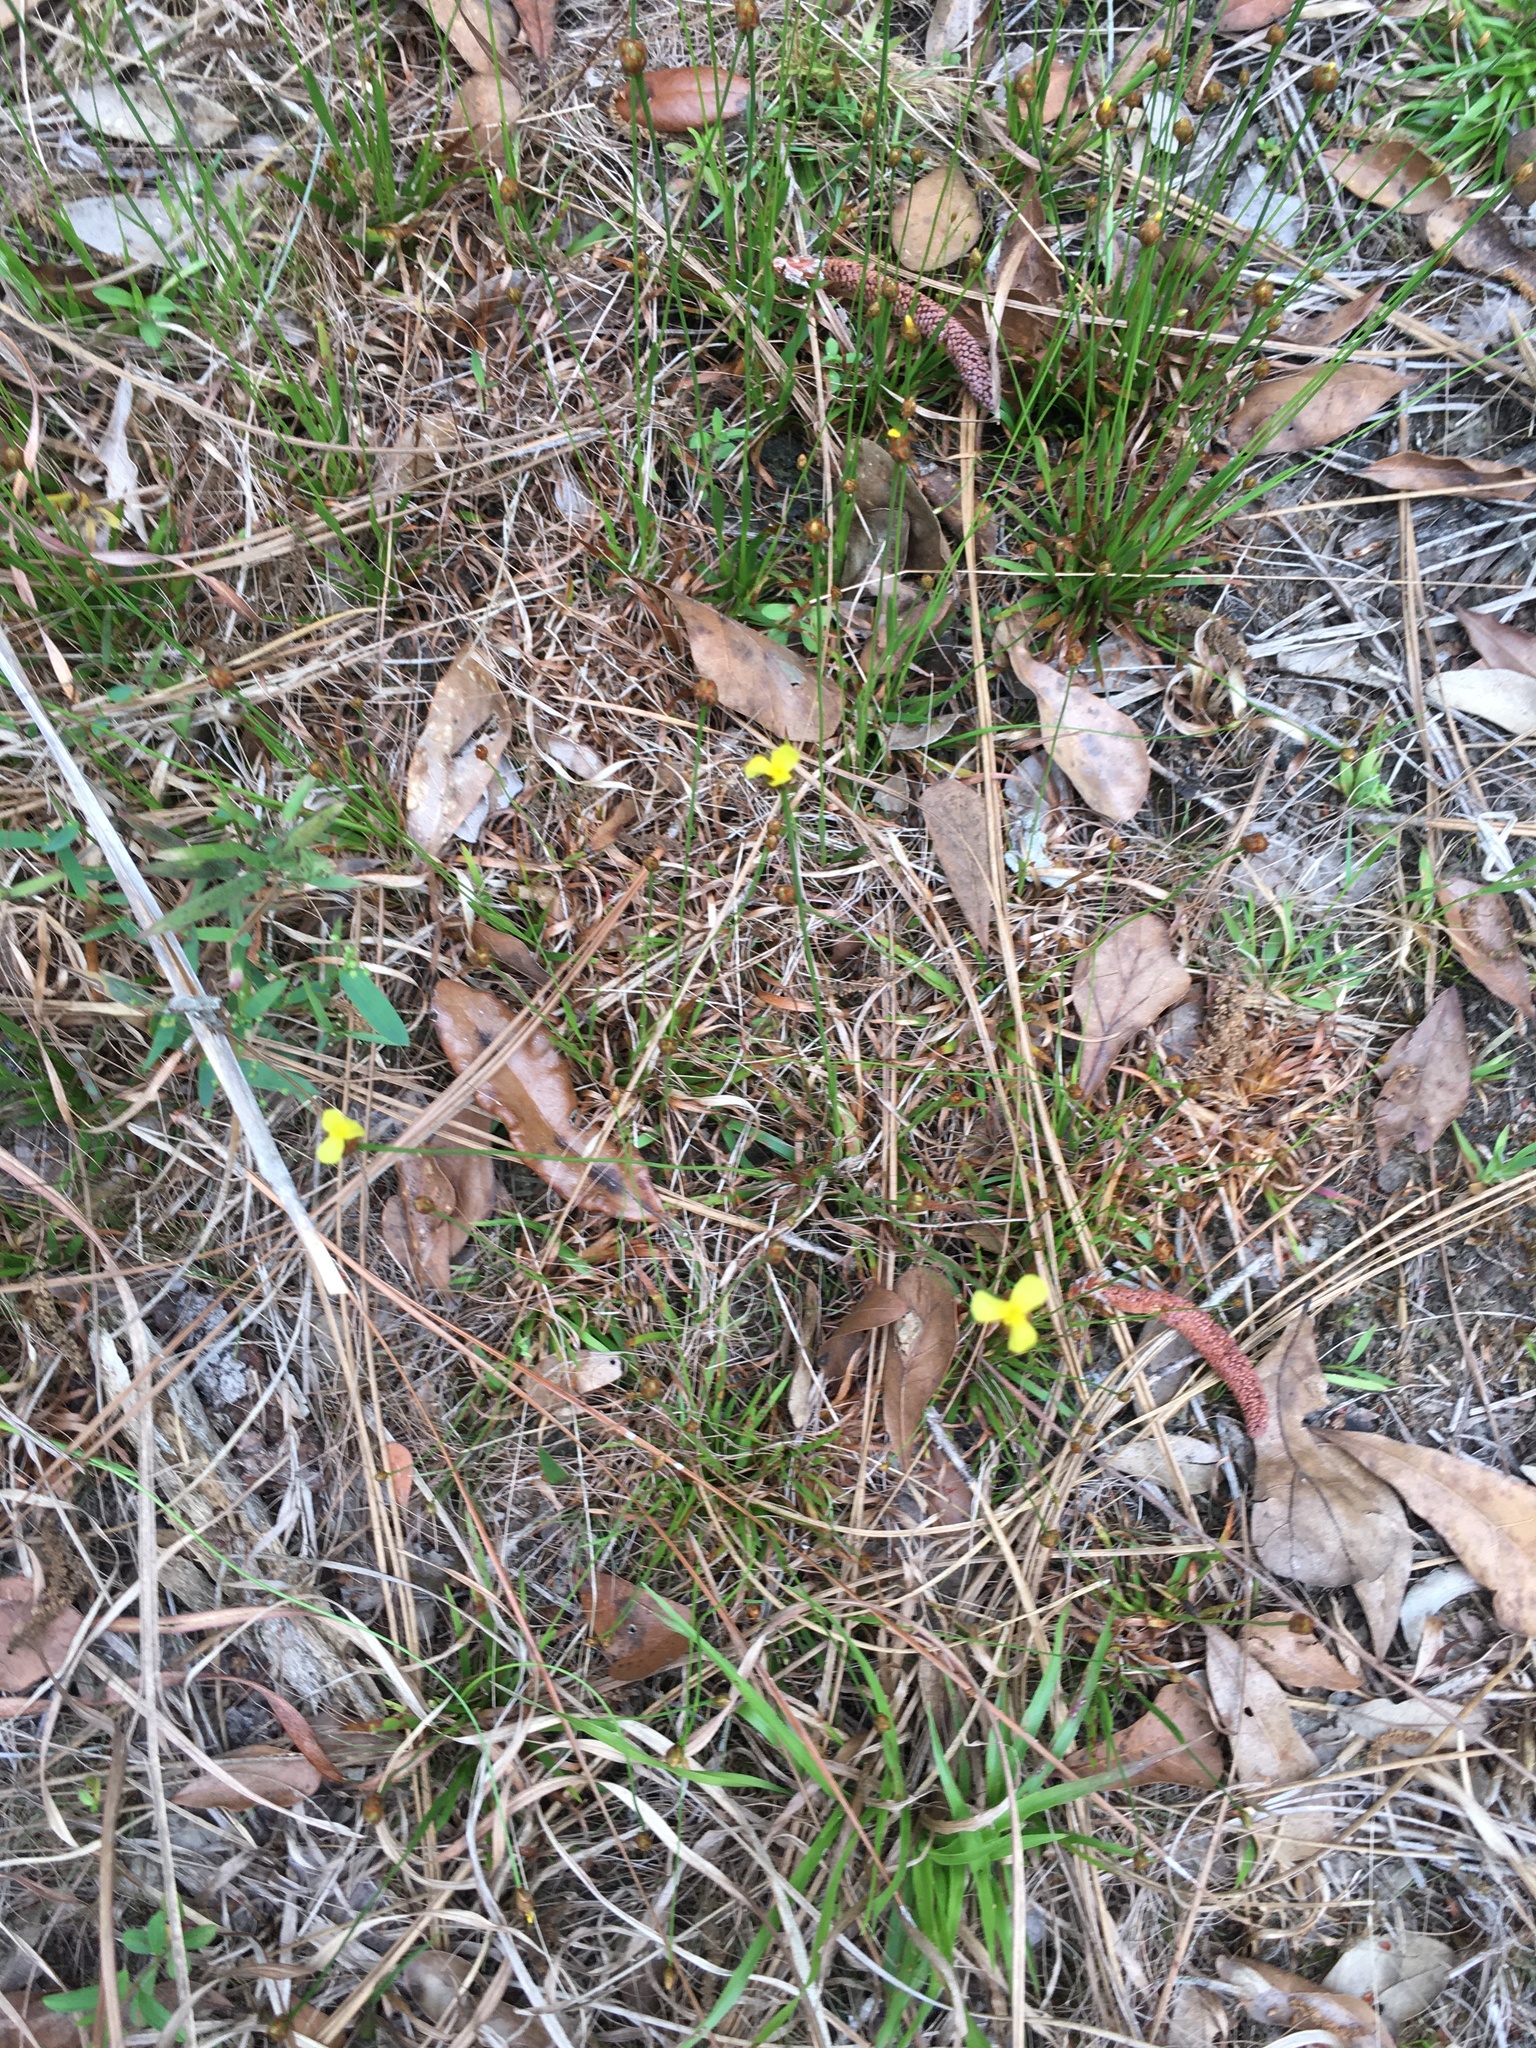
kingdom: Plantae
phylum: Tracheophyta
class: Liliopsida
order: Poales
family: Xyridaceae
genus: Xyris
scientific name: Xyris brevifolia
